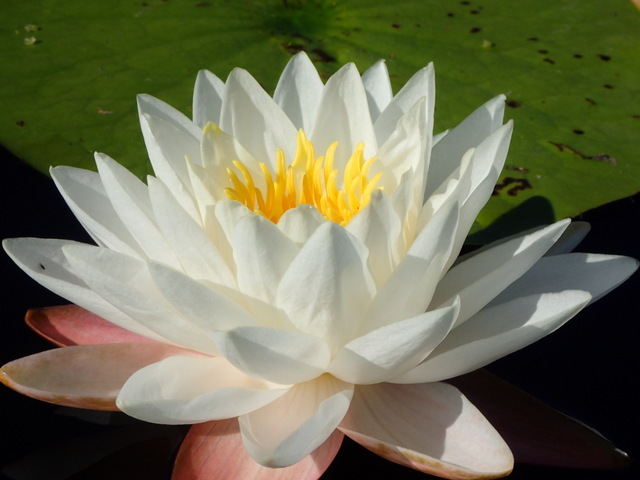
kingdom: Plantae
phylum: Tracheophyta
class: Magnoliopsida
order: Nymphaeales
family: Nymphaeaceae
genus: Nymphaea
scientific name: Nymphaea odorata
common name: Fragrant water-lily
